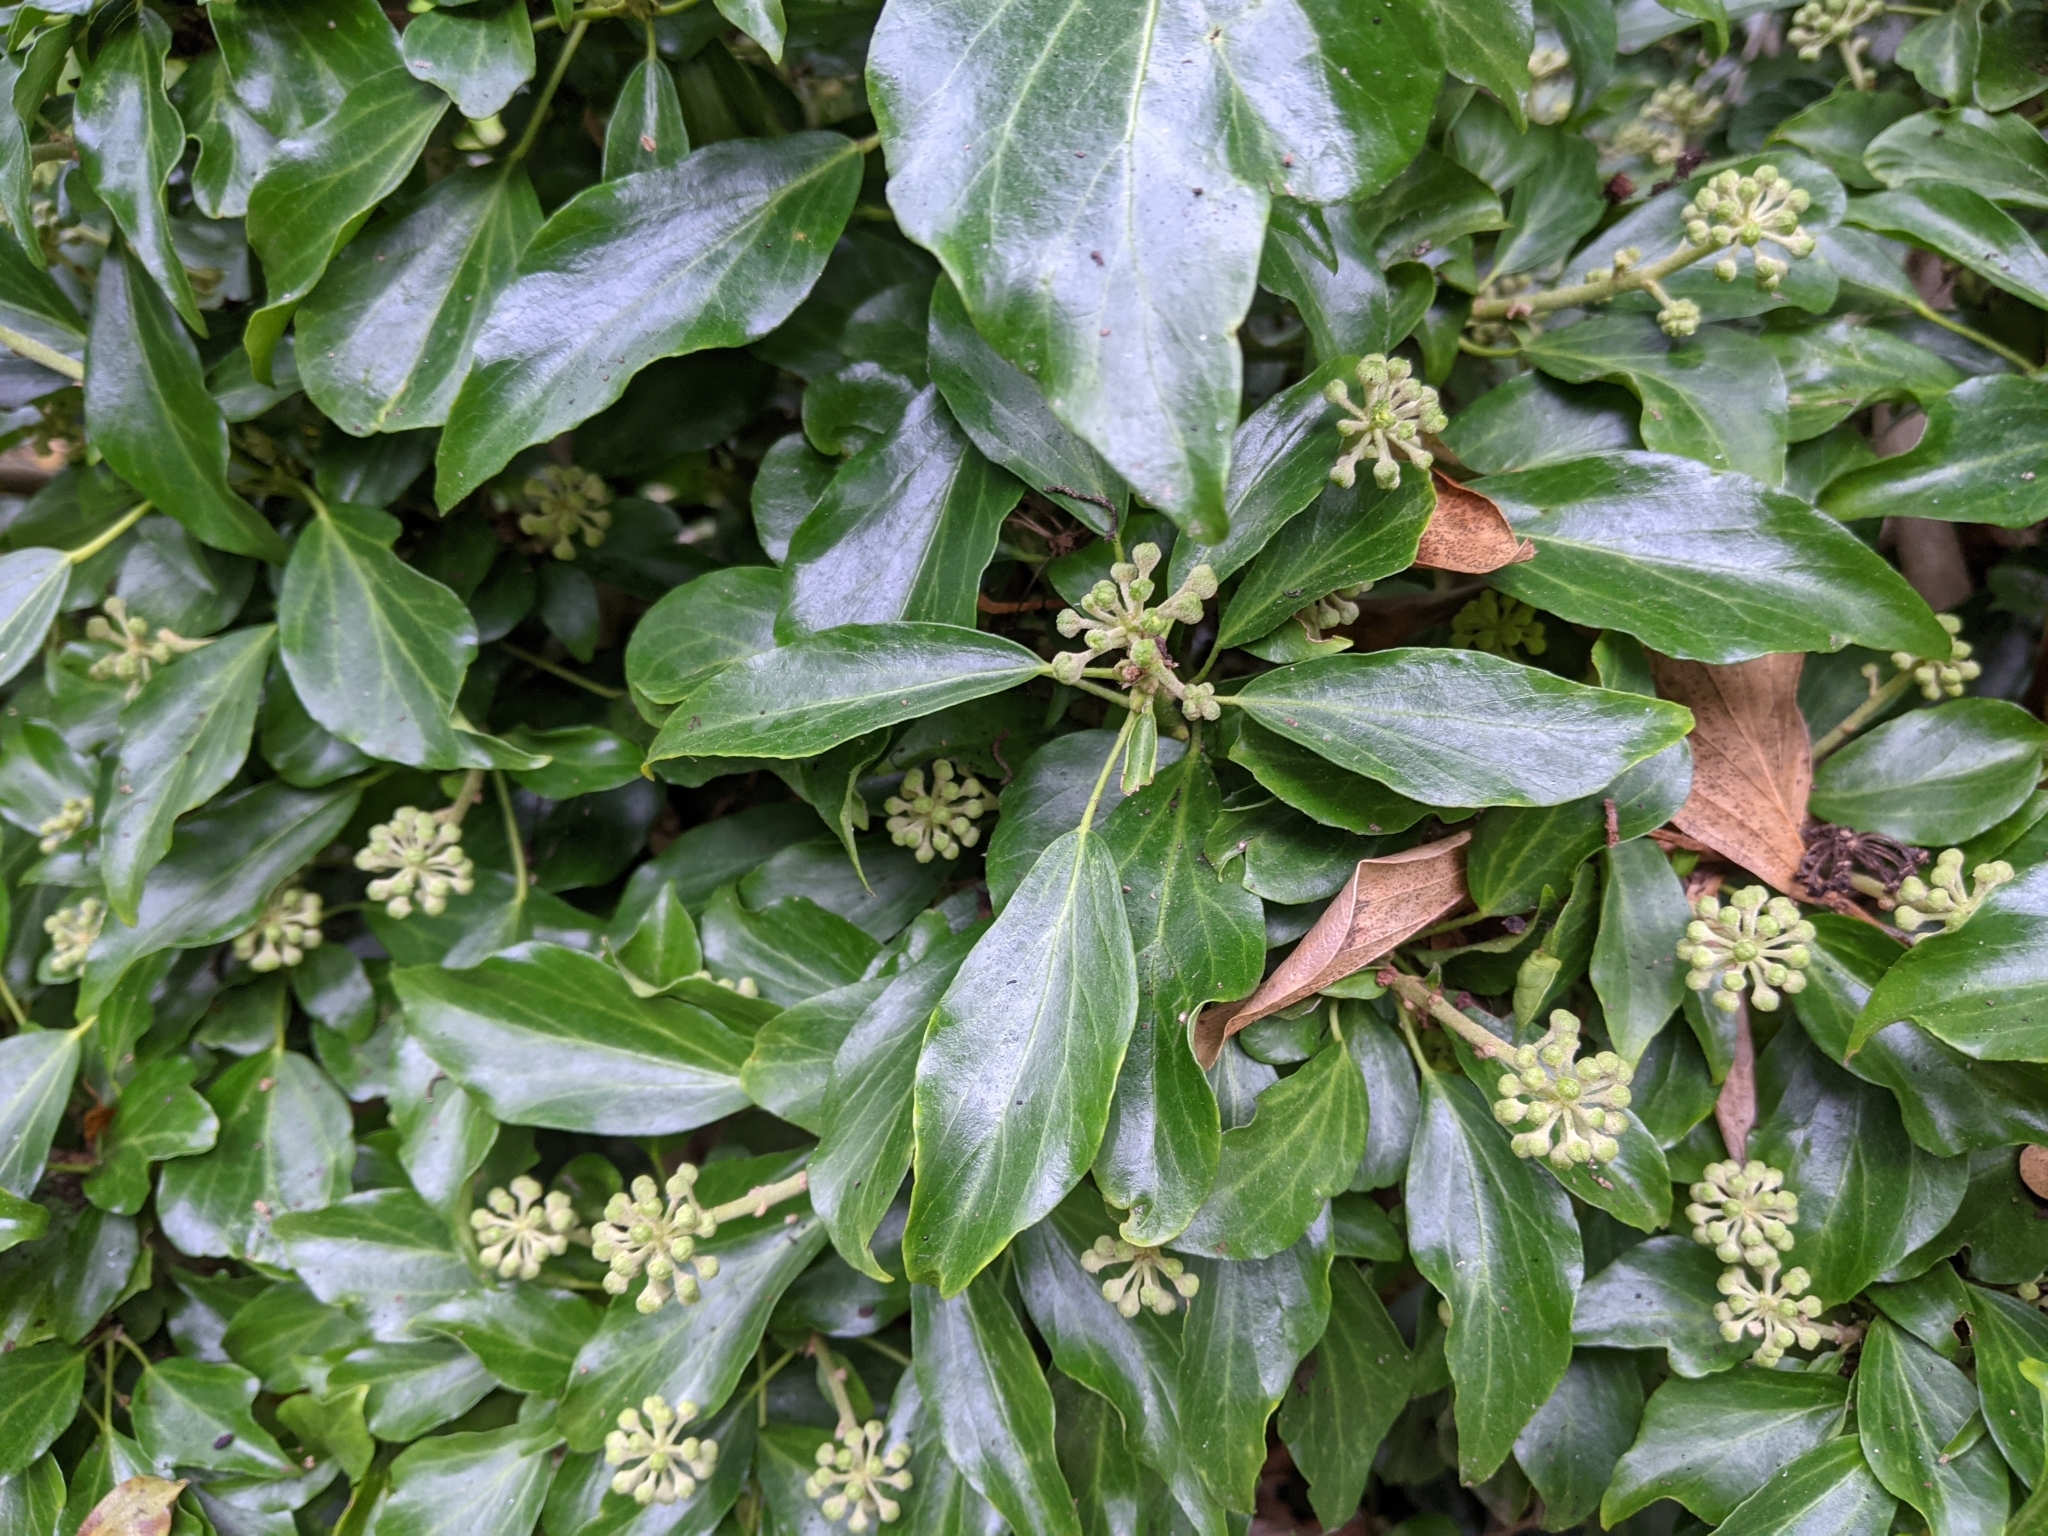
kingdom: Plantae
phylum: Tracheophyta
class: Magnoliopsida
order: Apiales
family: Araliaceae
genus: Hedera
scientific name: Hedera helix
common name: Ivy
